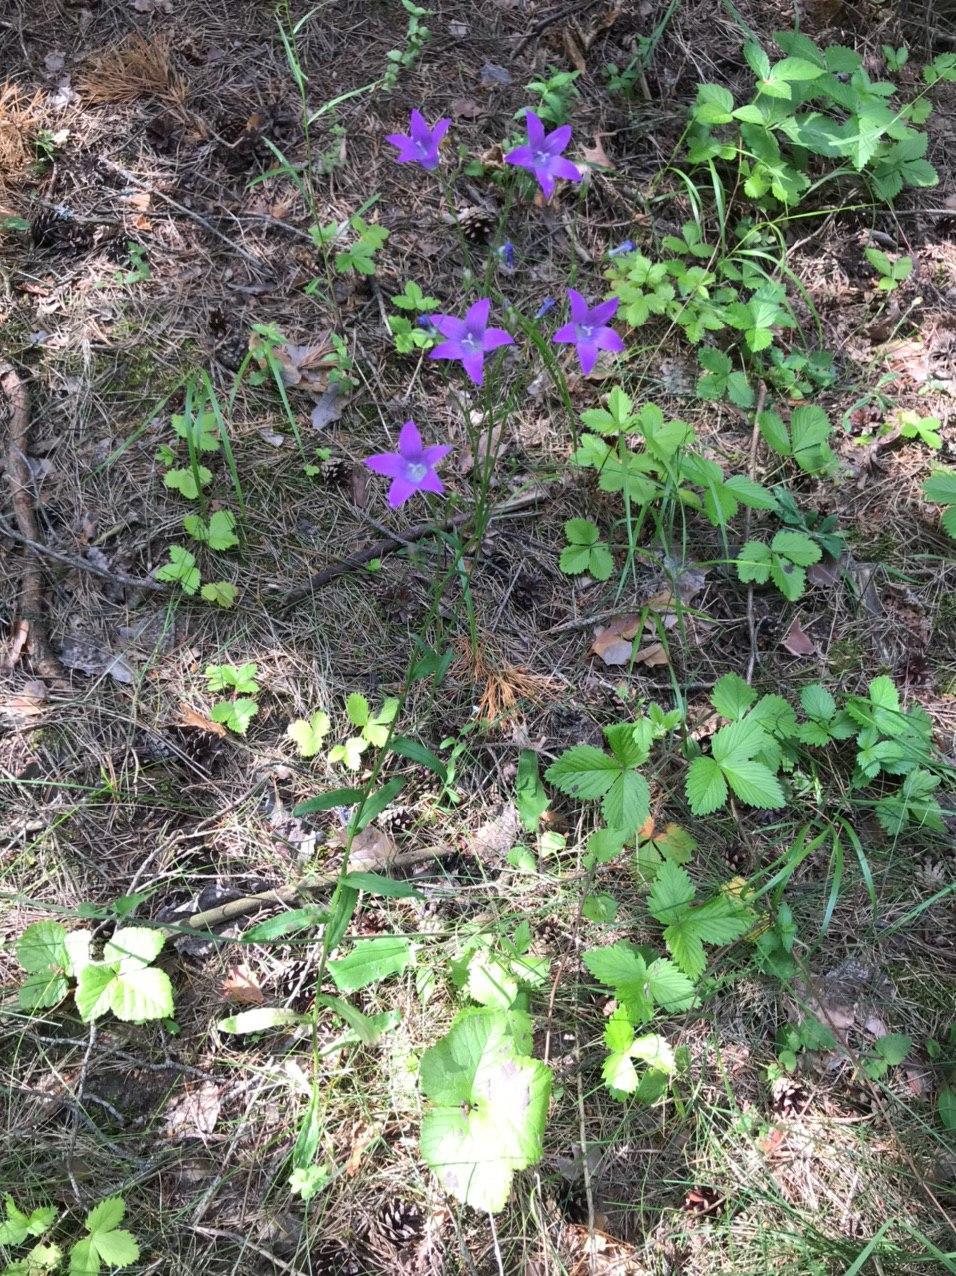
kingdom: Plantae
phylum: Tracheophyta
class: Magnoliopsida
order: Asterales
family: Campanulaceae
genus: Campanula
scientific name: Campanula patula
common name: Spreading bellflower
